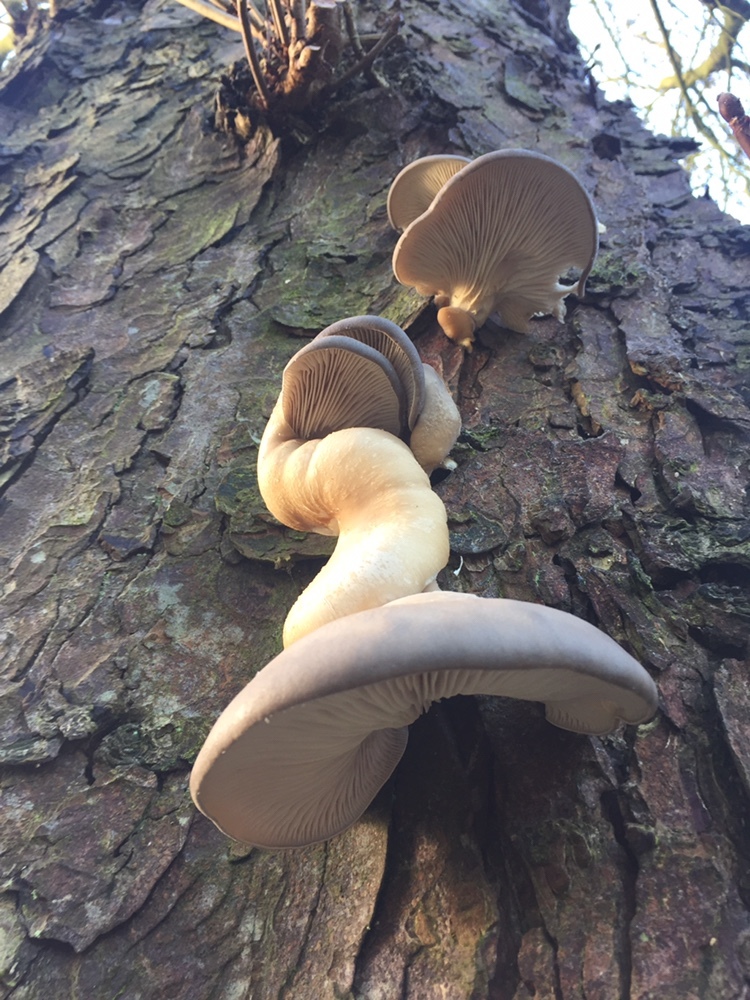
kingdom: Fungi
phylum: Basidiomycota
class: Agaricomycetes
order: Agaricales
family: Pleurotaceae
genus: Pleurotus
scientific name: Pleurotus ostreatus
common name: Oyster mushroom
